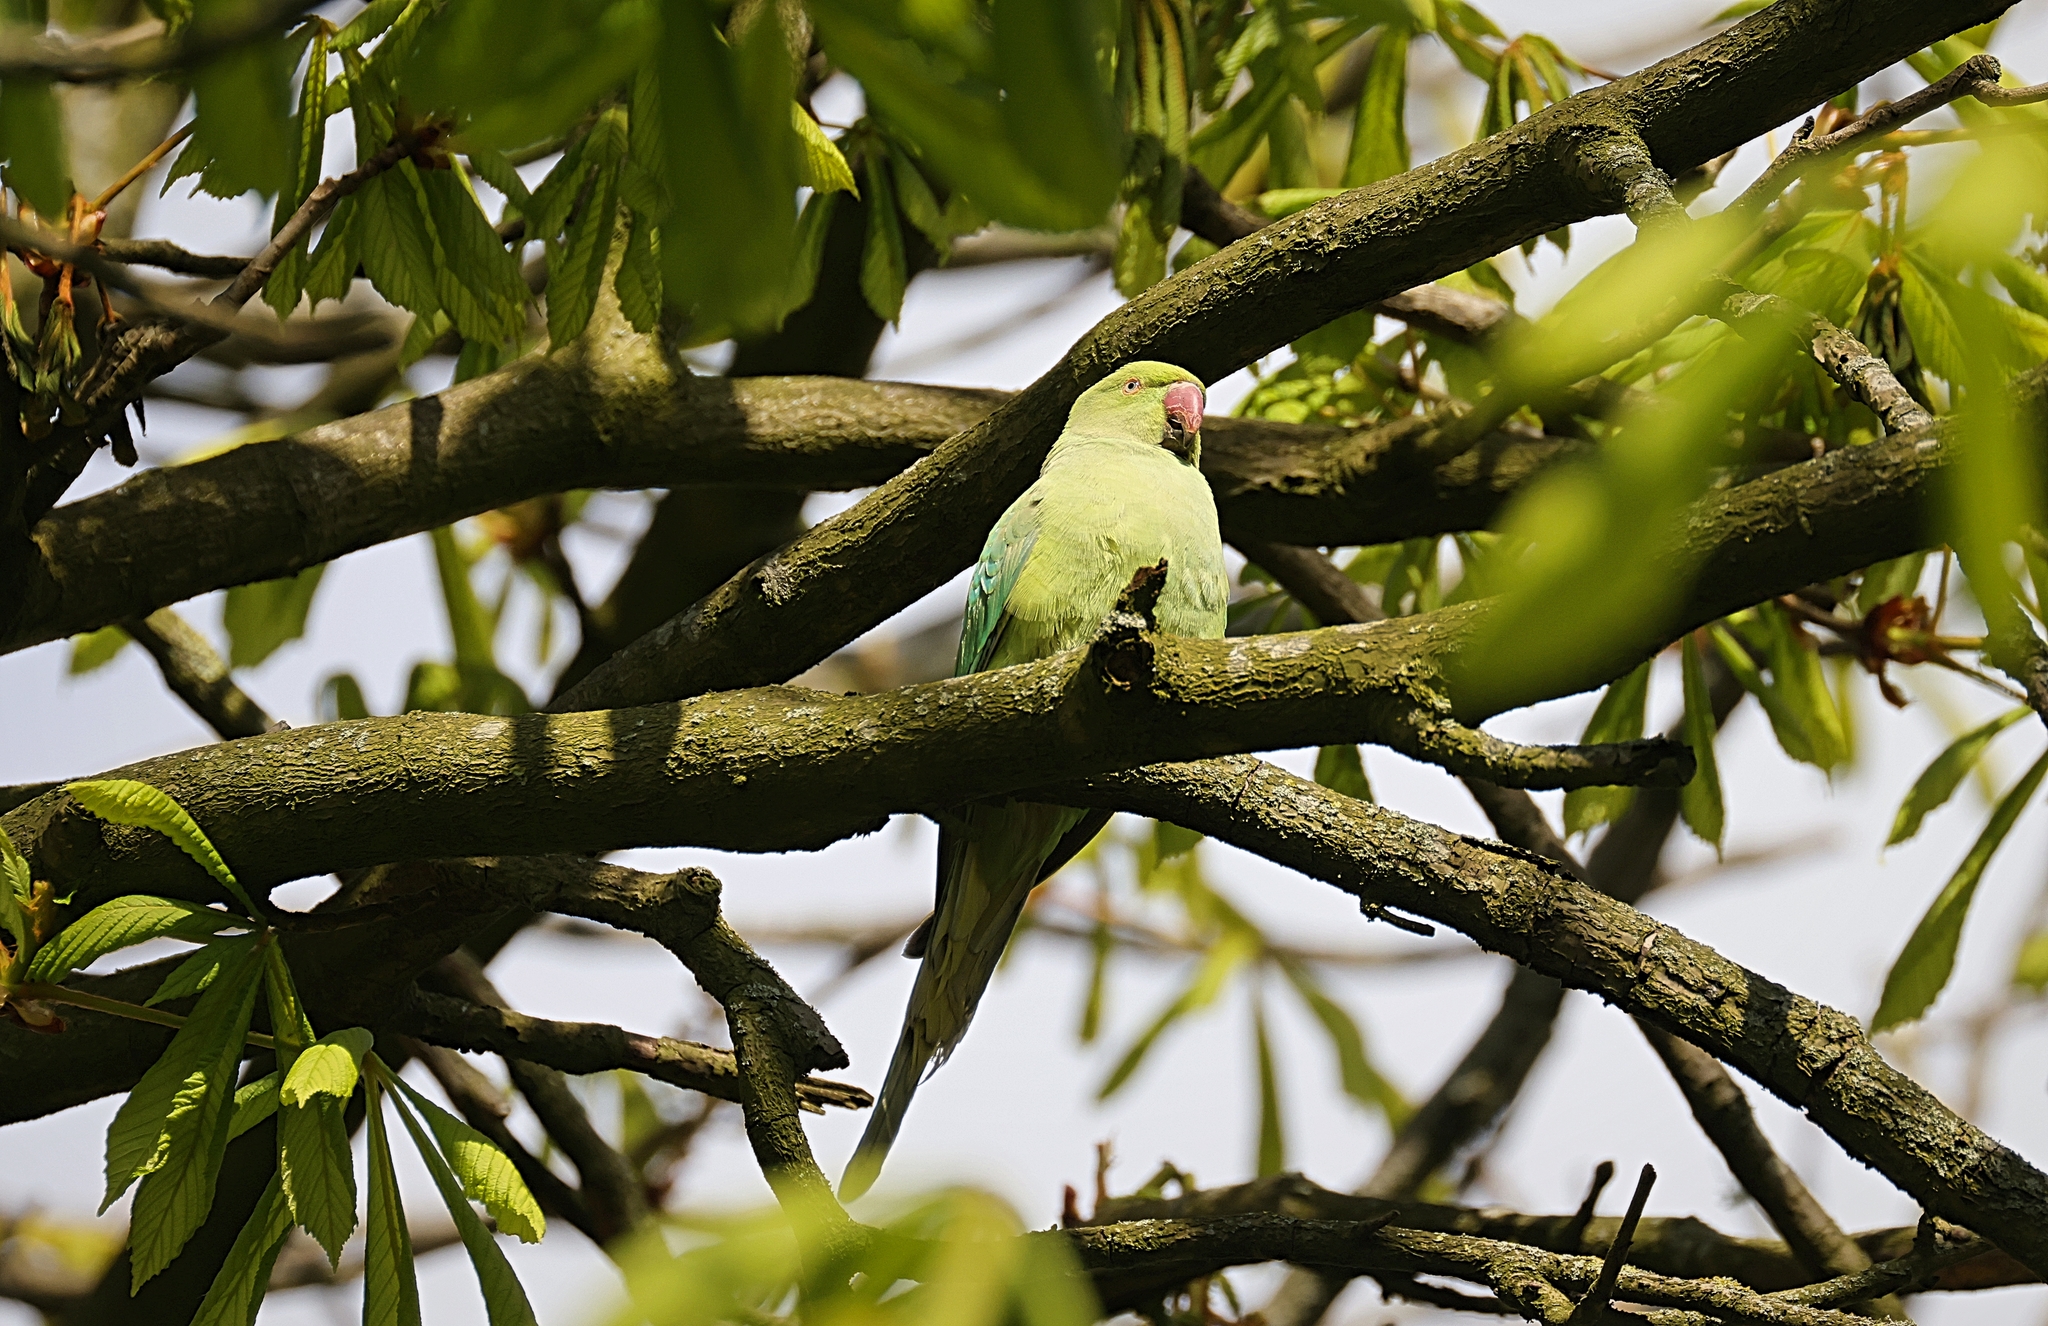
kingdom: Animalia
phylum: Chordata
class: Aves
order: Psittaciformes
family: Psittacidae
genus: Psittacula
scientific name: Psittacula krameri
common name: Rose-ringed parakeet
